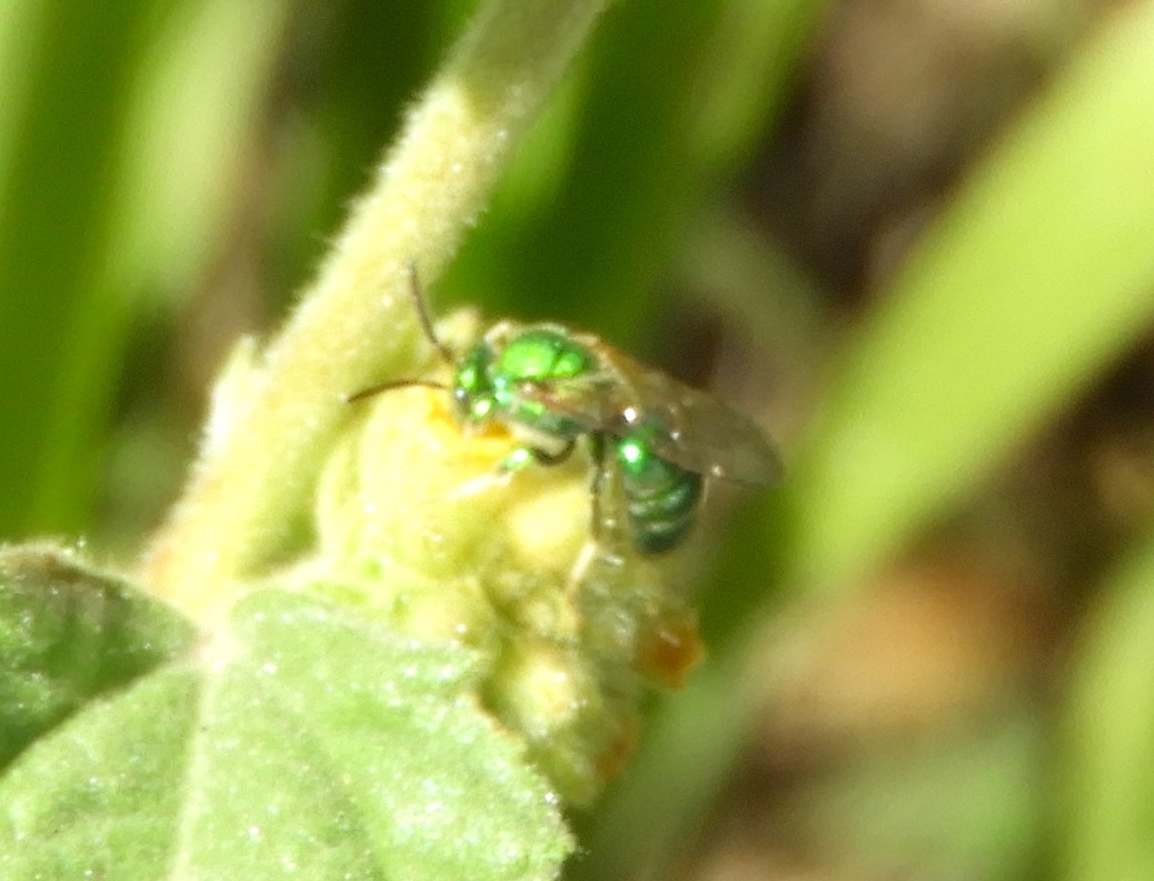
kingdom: Animalia
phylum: Arthropoda
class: Insecta
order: Hymenoptera
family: Halictidae
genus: Augochloropsis
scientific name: Augochloropsis
